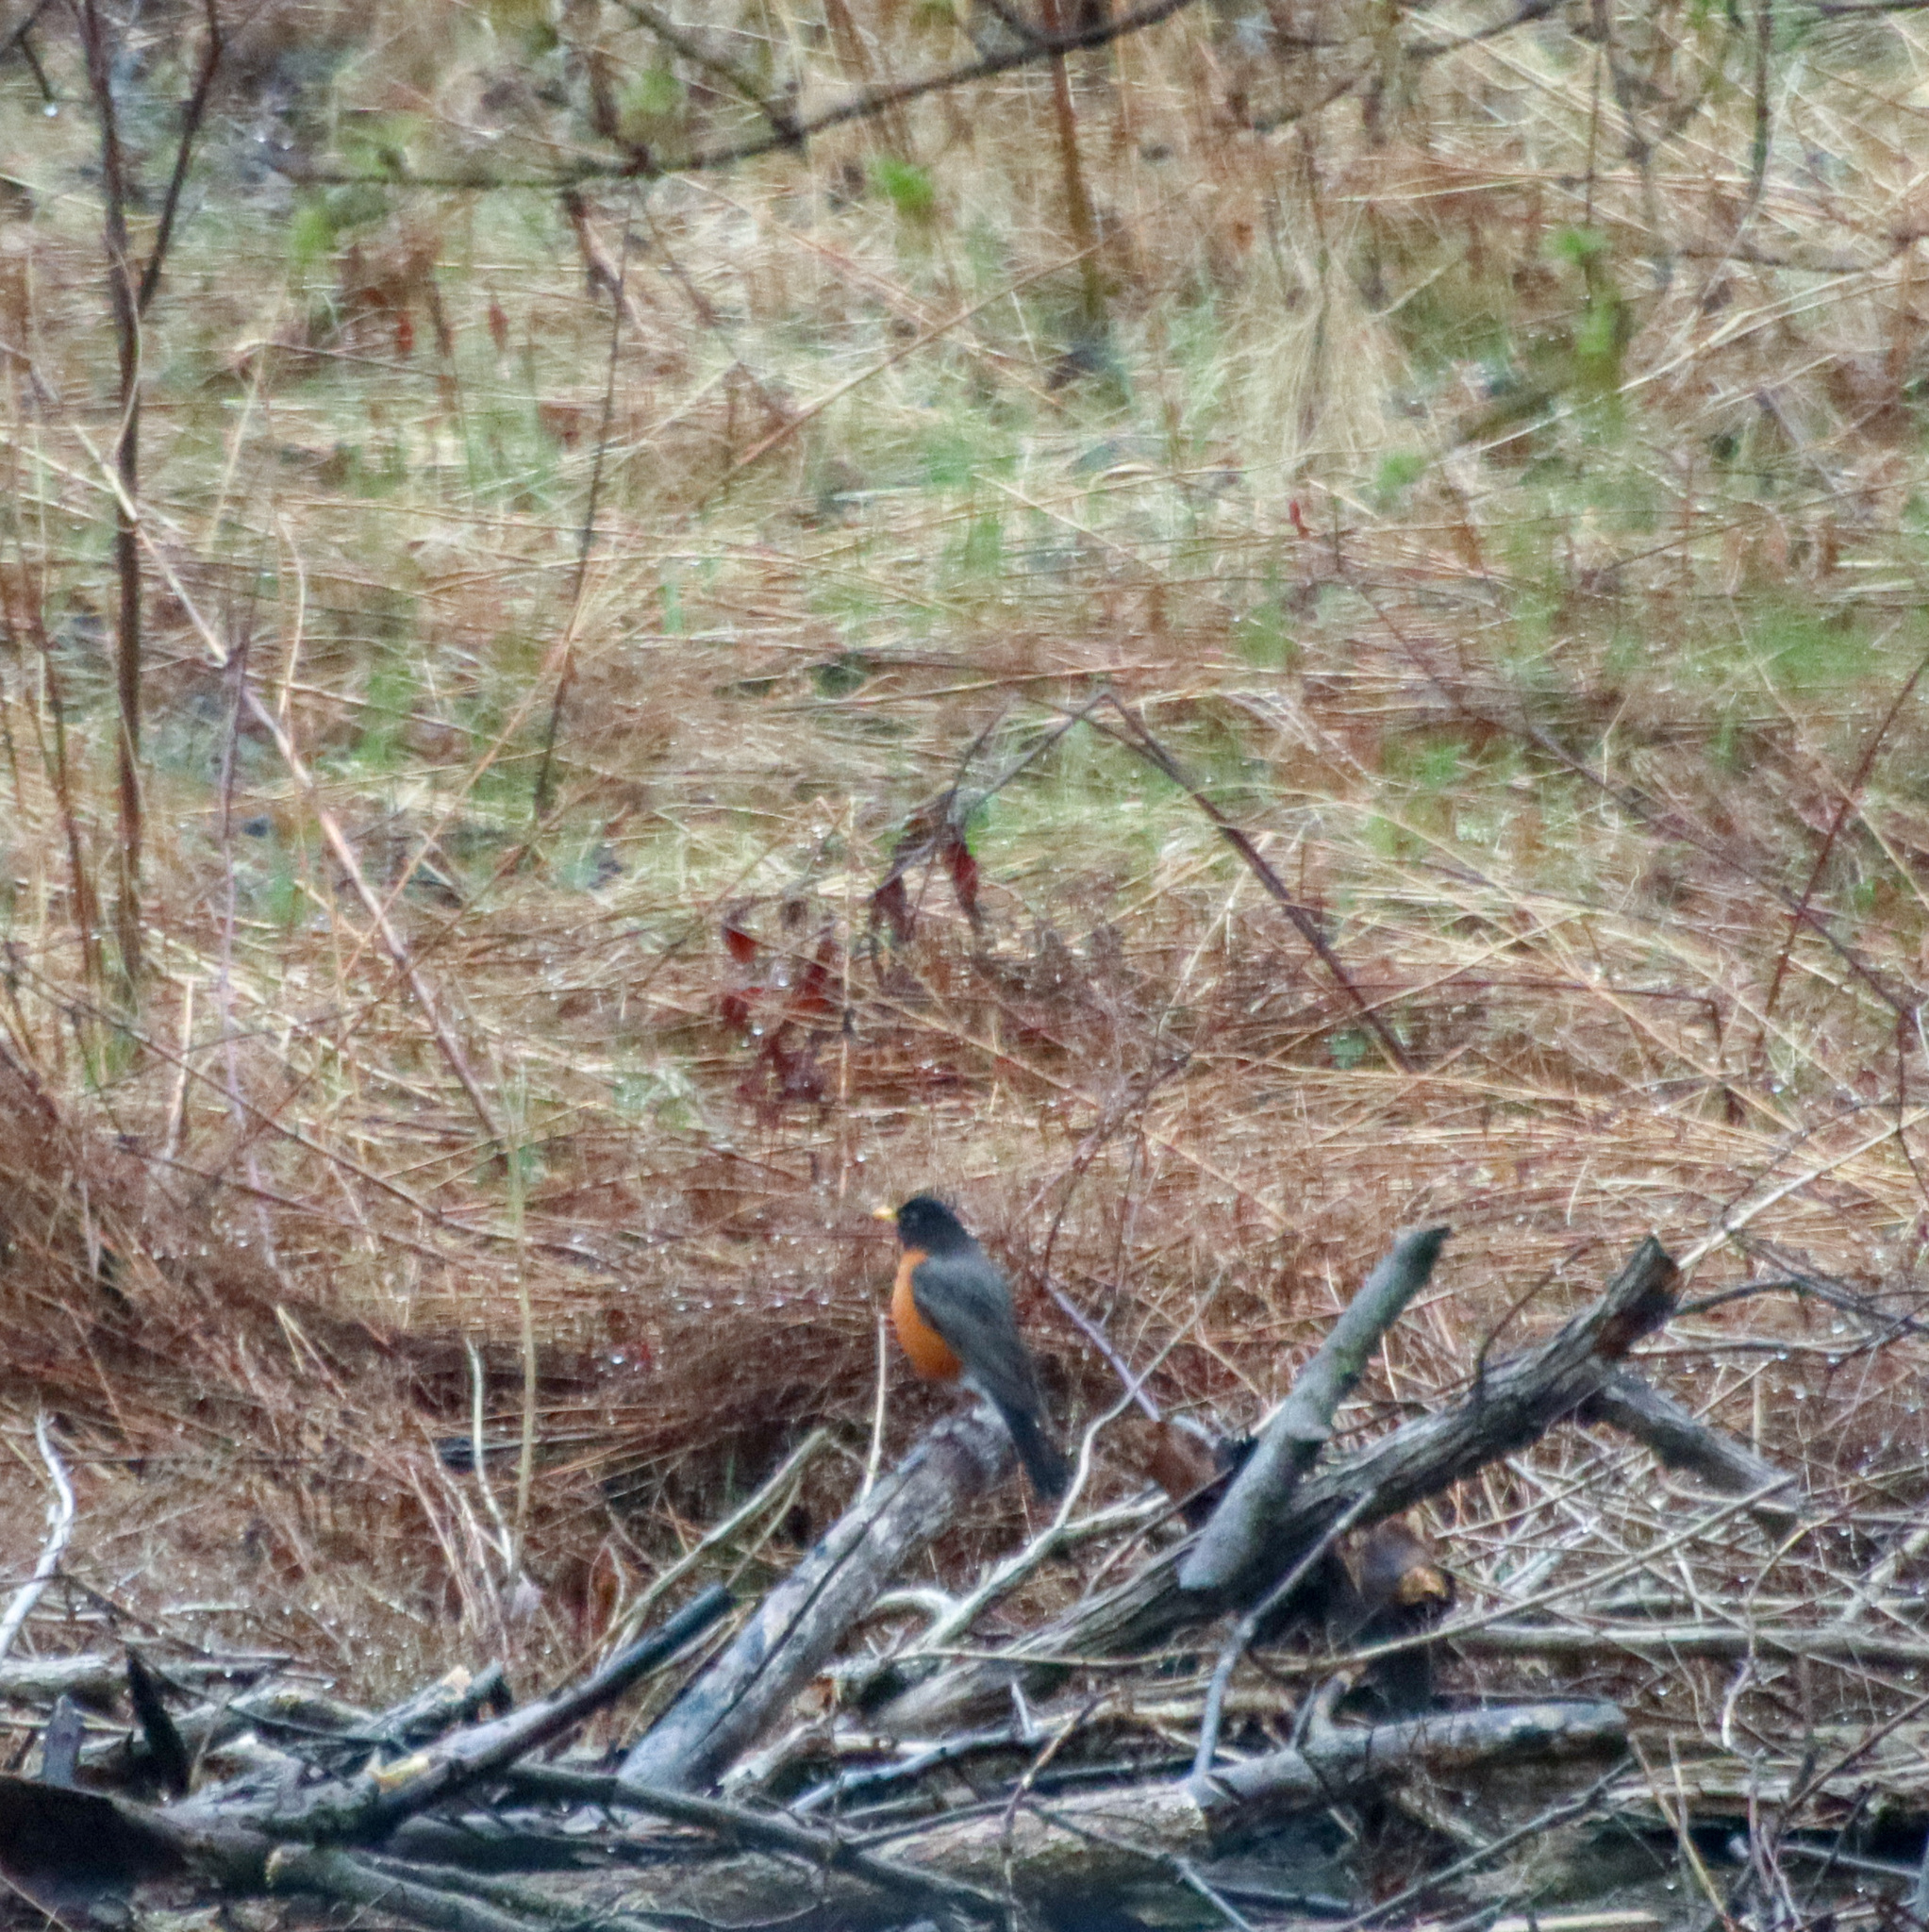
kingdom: Animalia
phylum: Chordata
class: Aves
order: Passeriformes
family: Turdidae
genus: Turdus
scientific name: Turdus migratorius
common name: American robin
